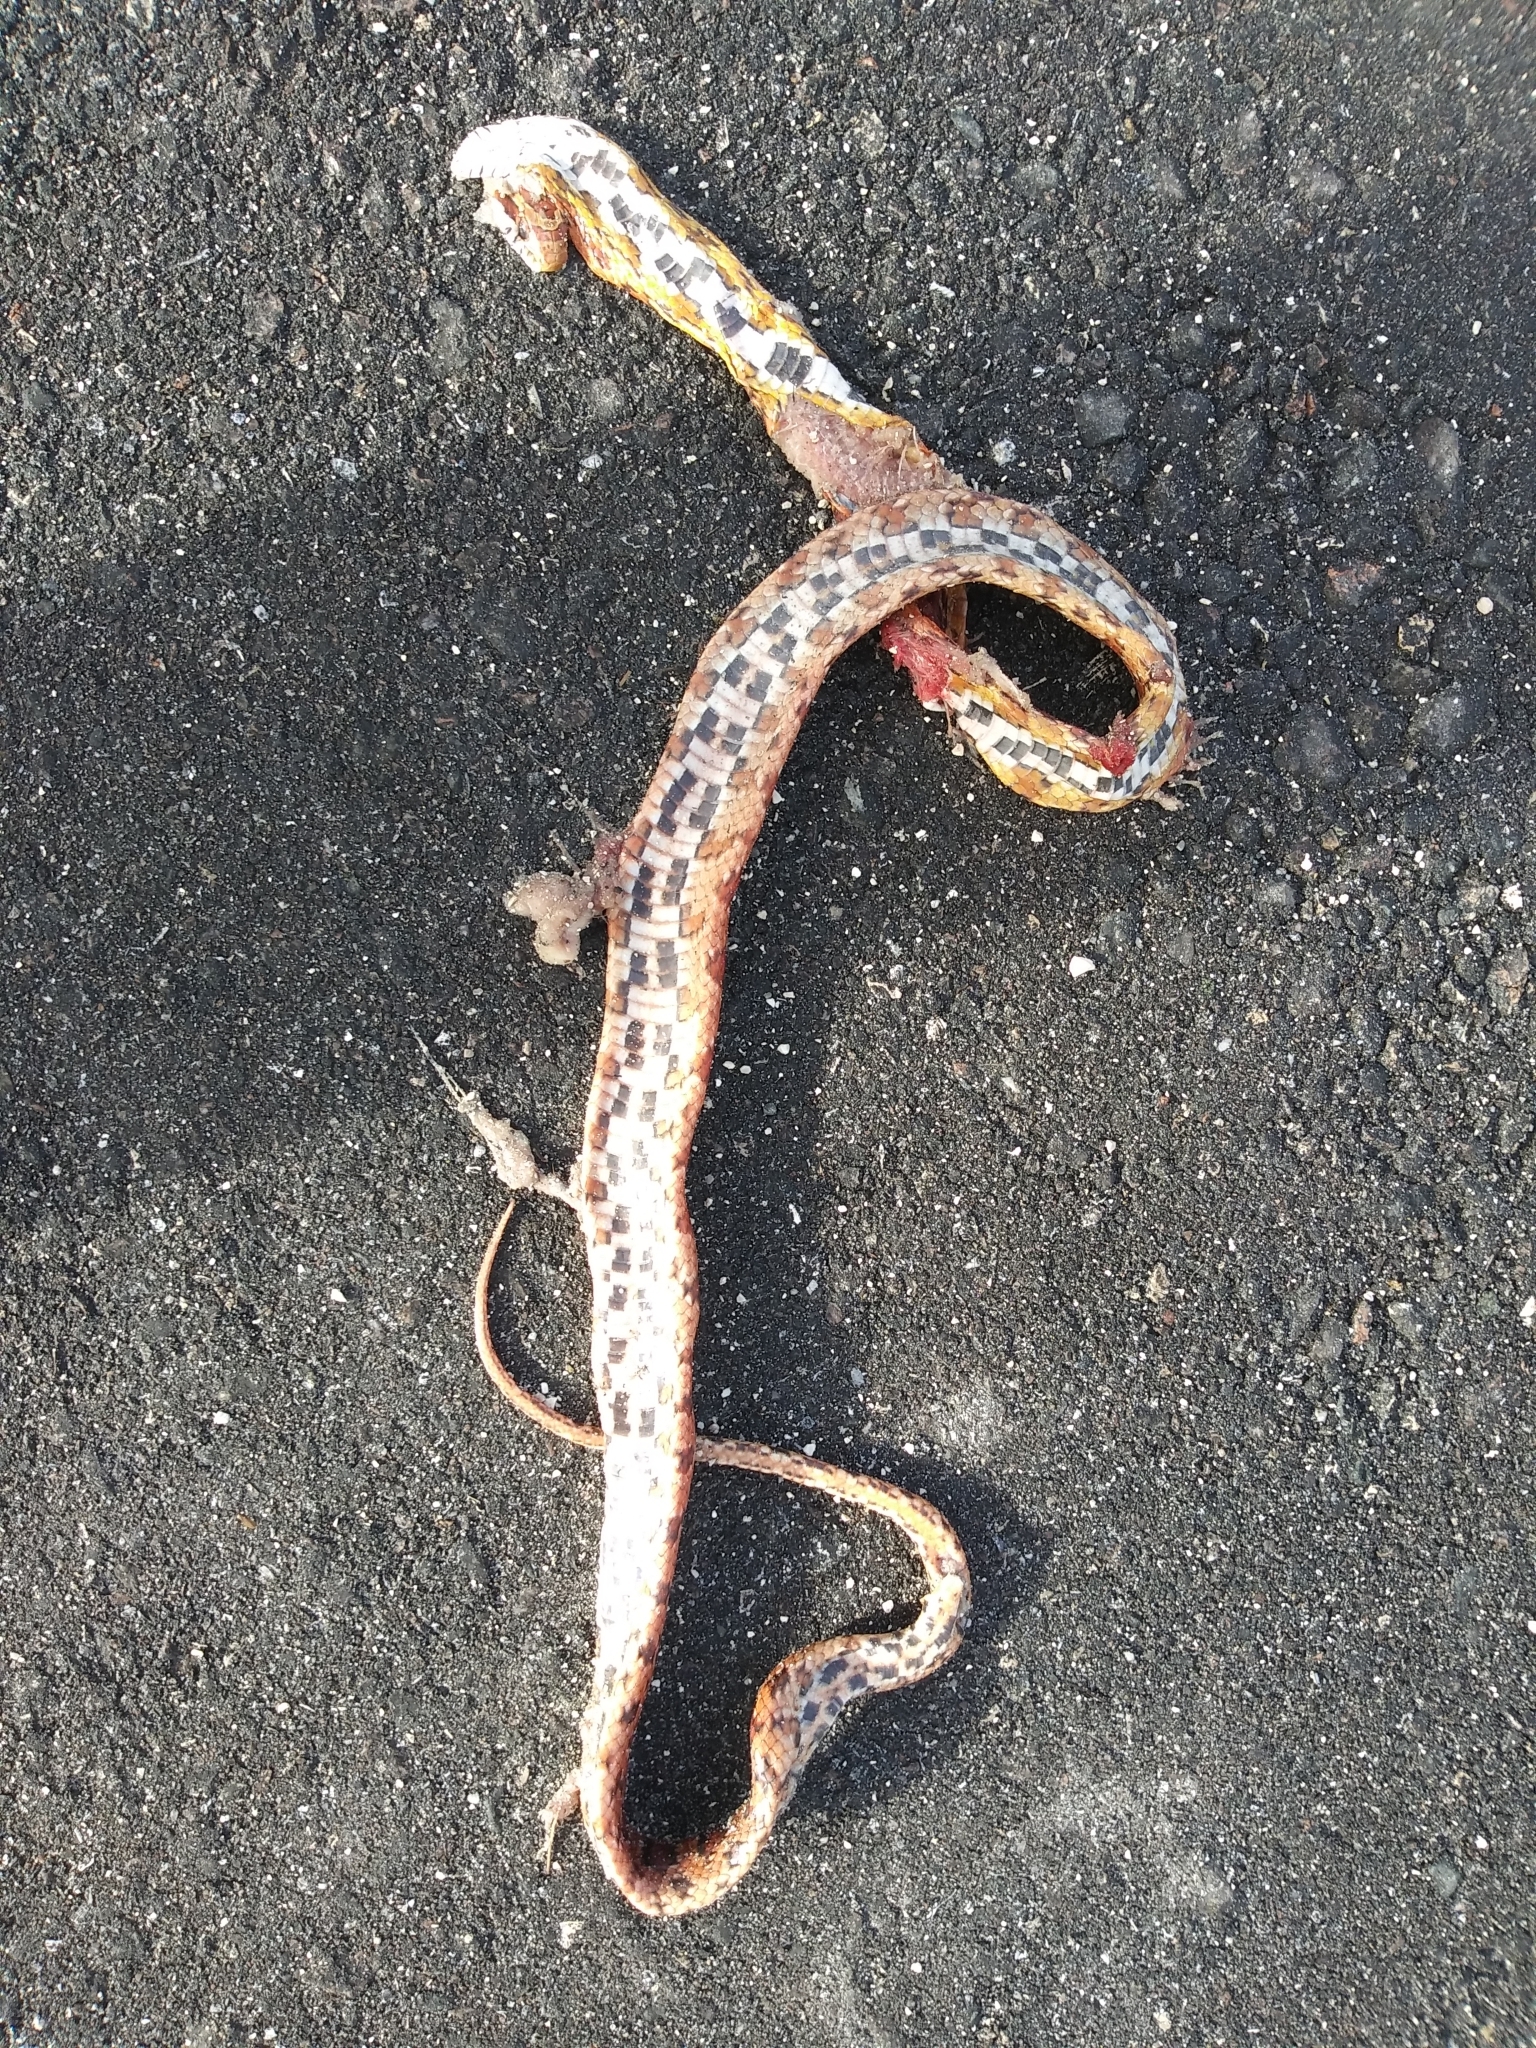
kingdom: Animalia
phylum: Chordata
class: Squamata
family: Colubridae
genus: Pantherophis
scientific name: Pantherophis guttatus
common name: Red cornsnake
